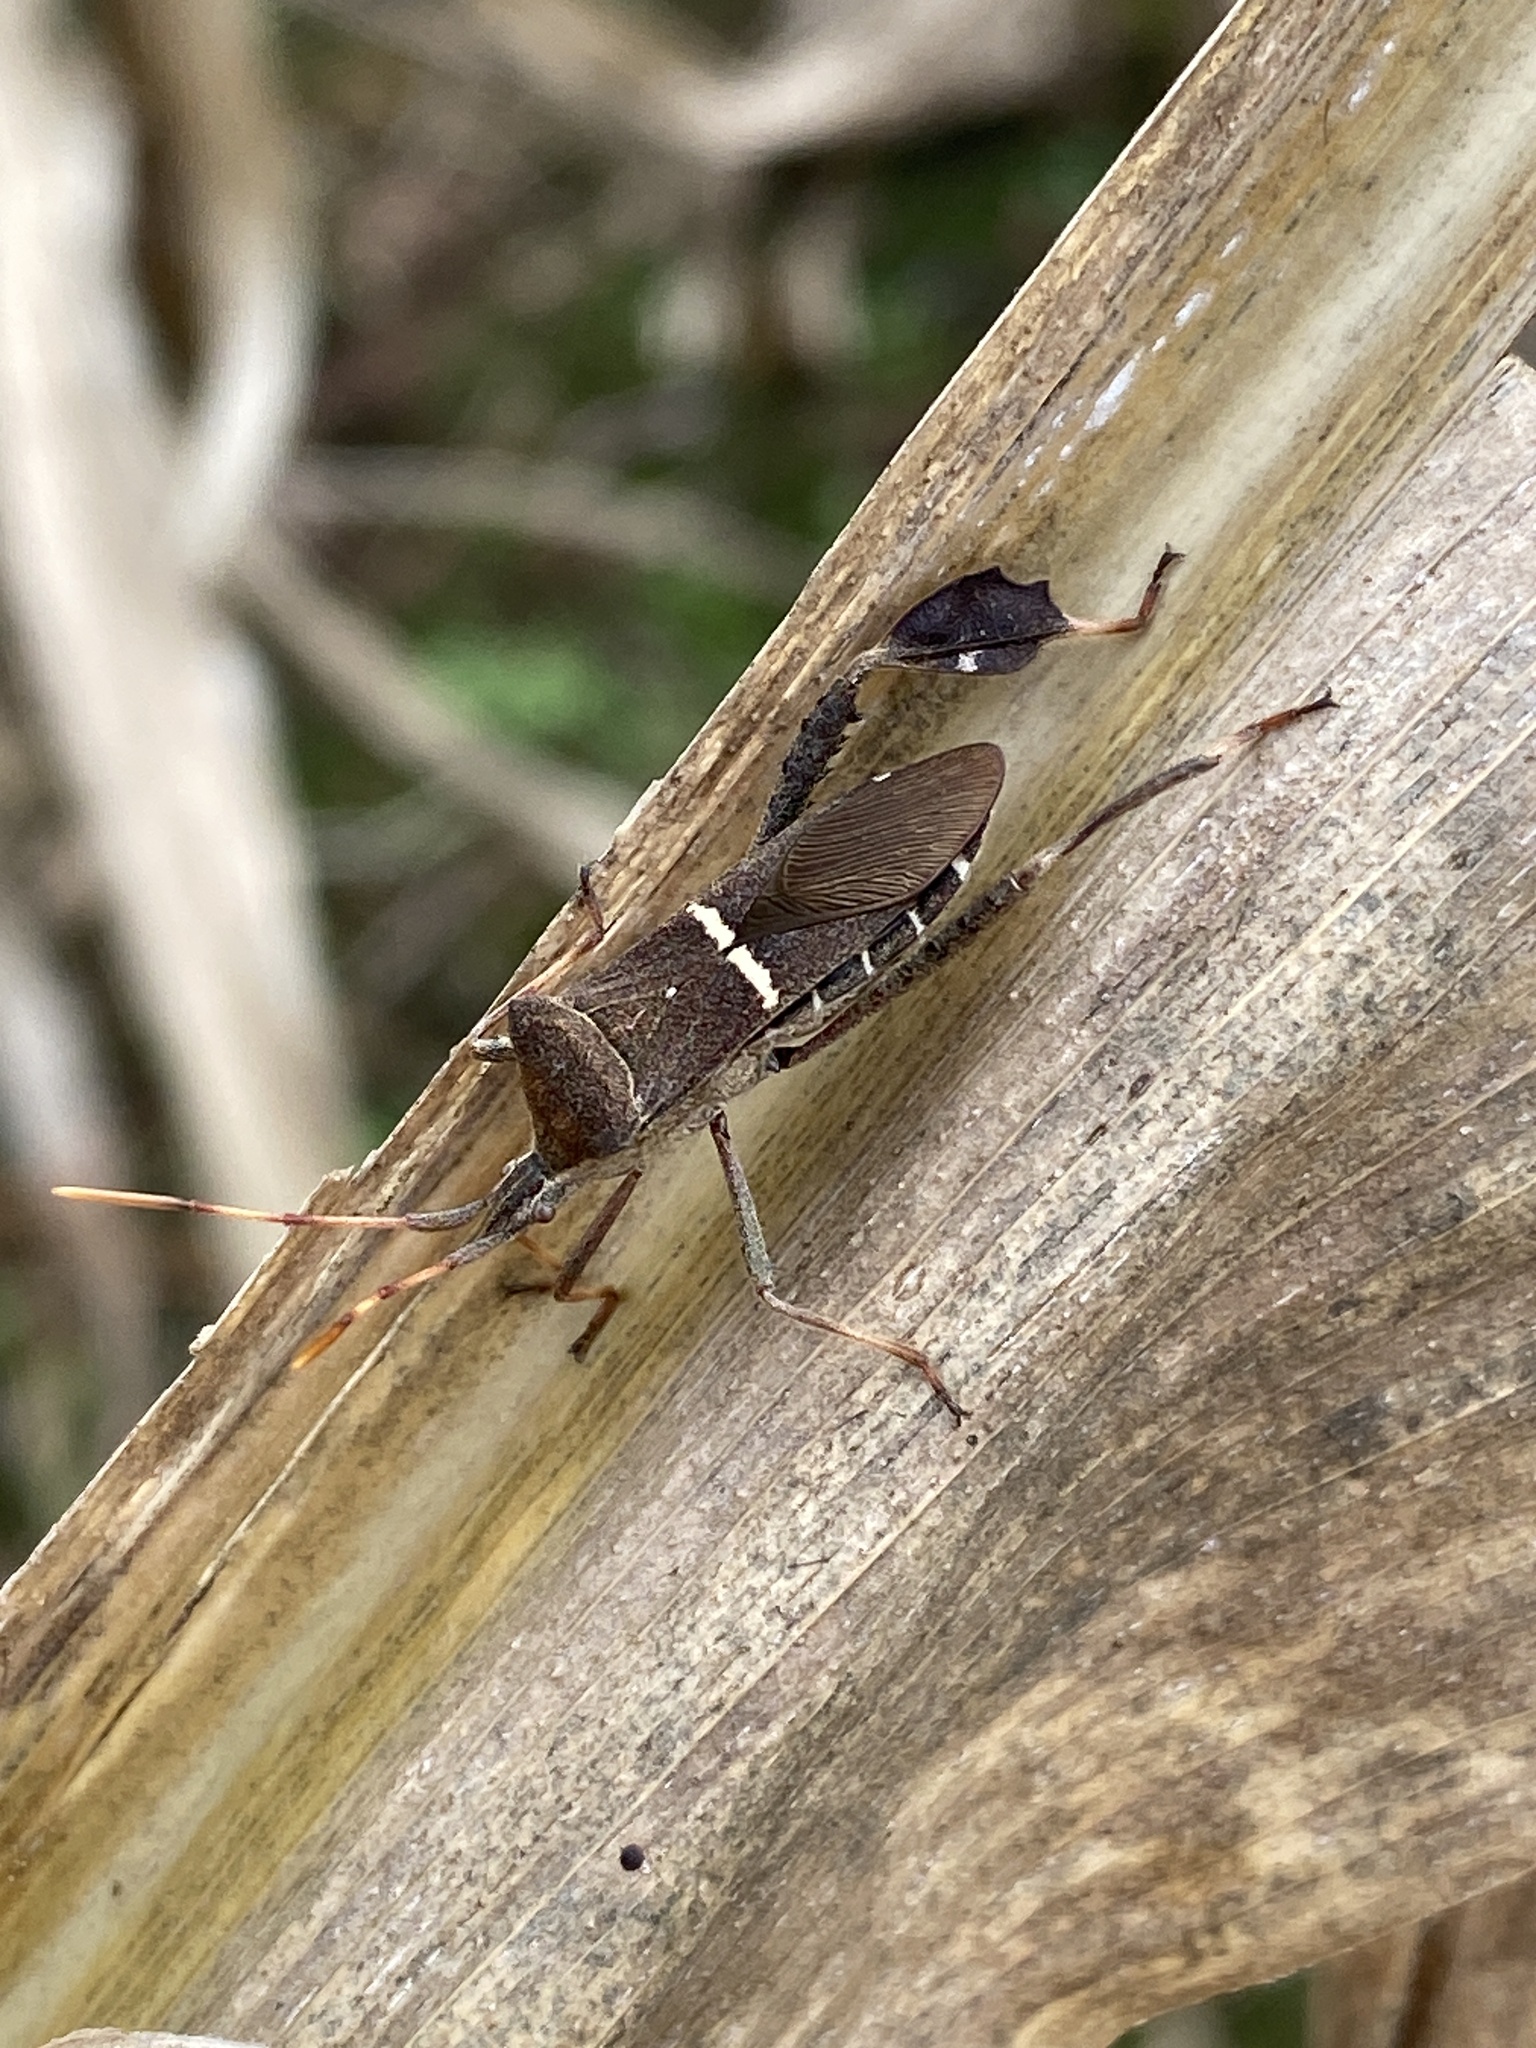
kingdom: Animalia
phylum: Arthropoda
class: Insecta
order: Hemiptera
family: Coreidae
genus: Leptoglossus
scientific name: Leptoglossus phyllopus
